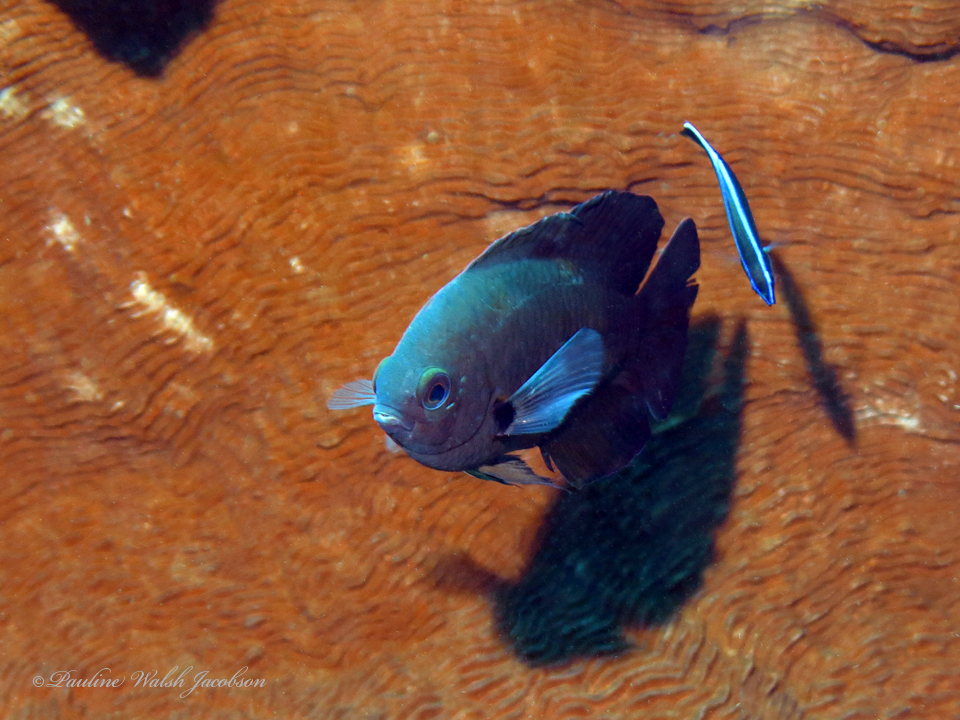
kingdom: Animalia
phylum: Chordata
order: Perciformes
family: Labridae
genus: Labroides
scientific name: Labroides dimidiatus
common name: Blue diesel wrasse
